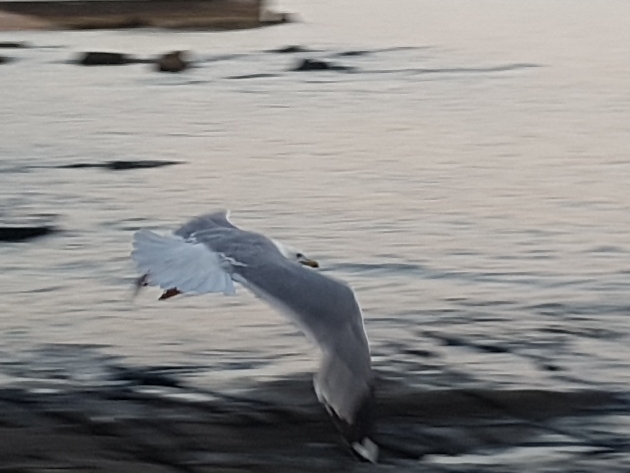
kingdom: Animalia
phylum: Chordata
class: Aves
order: Charadriiformes
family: Laridae
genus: Larus
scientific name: Larus michahellis
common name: Yellow-legged gull
